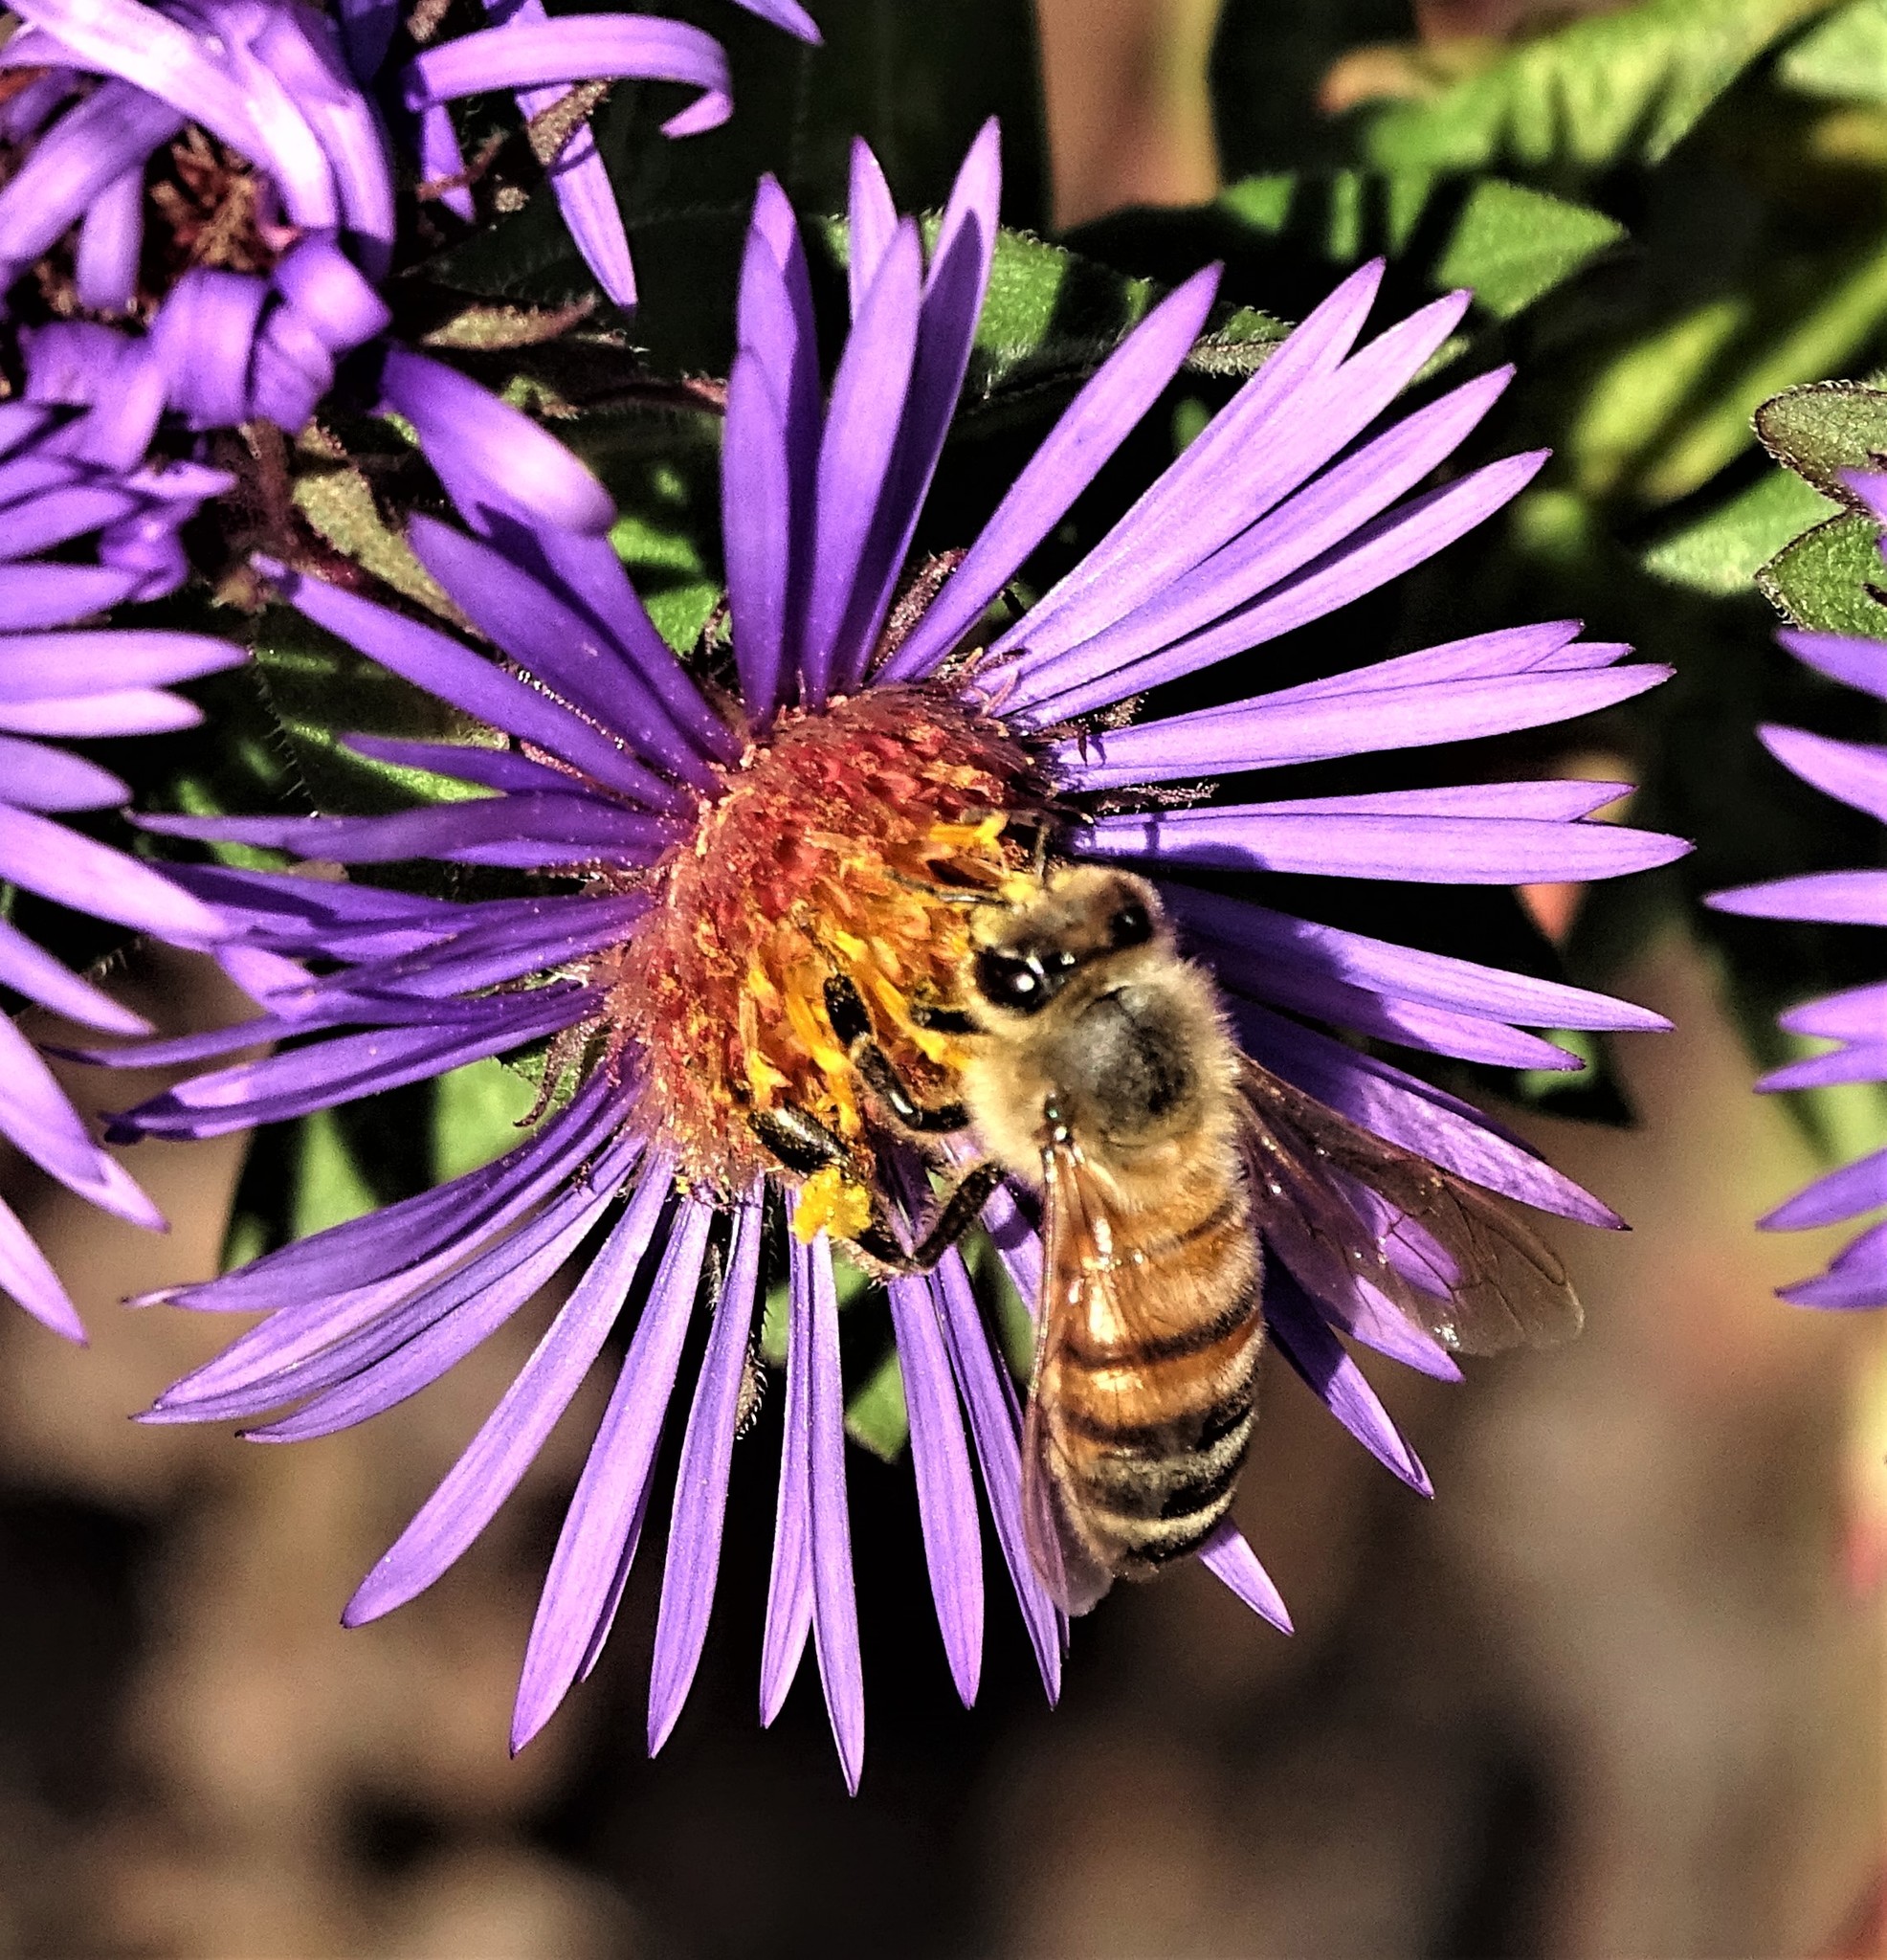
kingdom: Animalia
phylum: Arthropoda
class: Insecta
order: Hymenoptera
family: Apidae
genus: Apis
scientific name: Apis mellifera
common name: Honey bee
